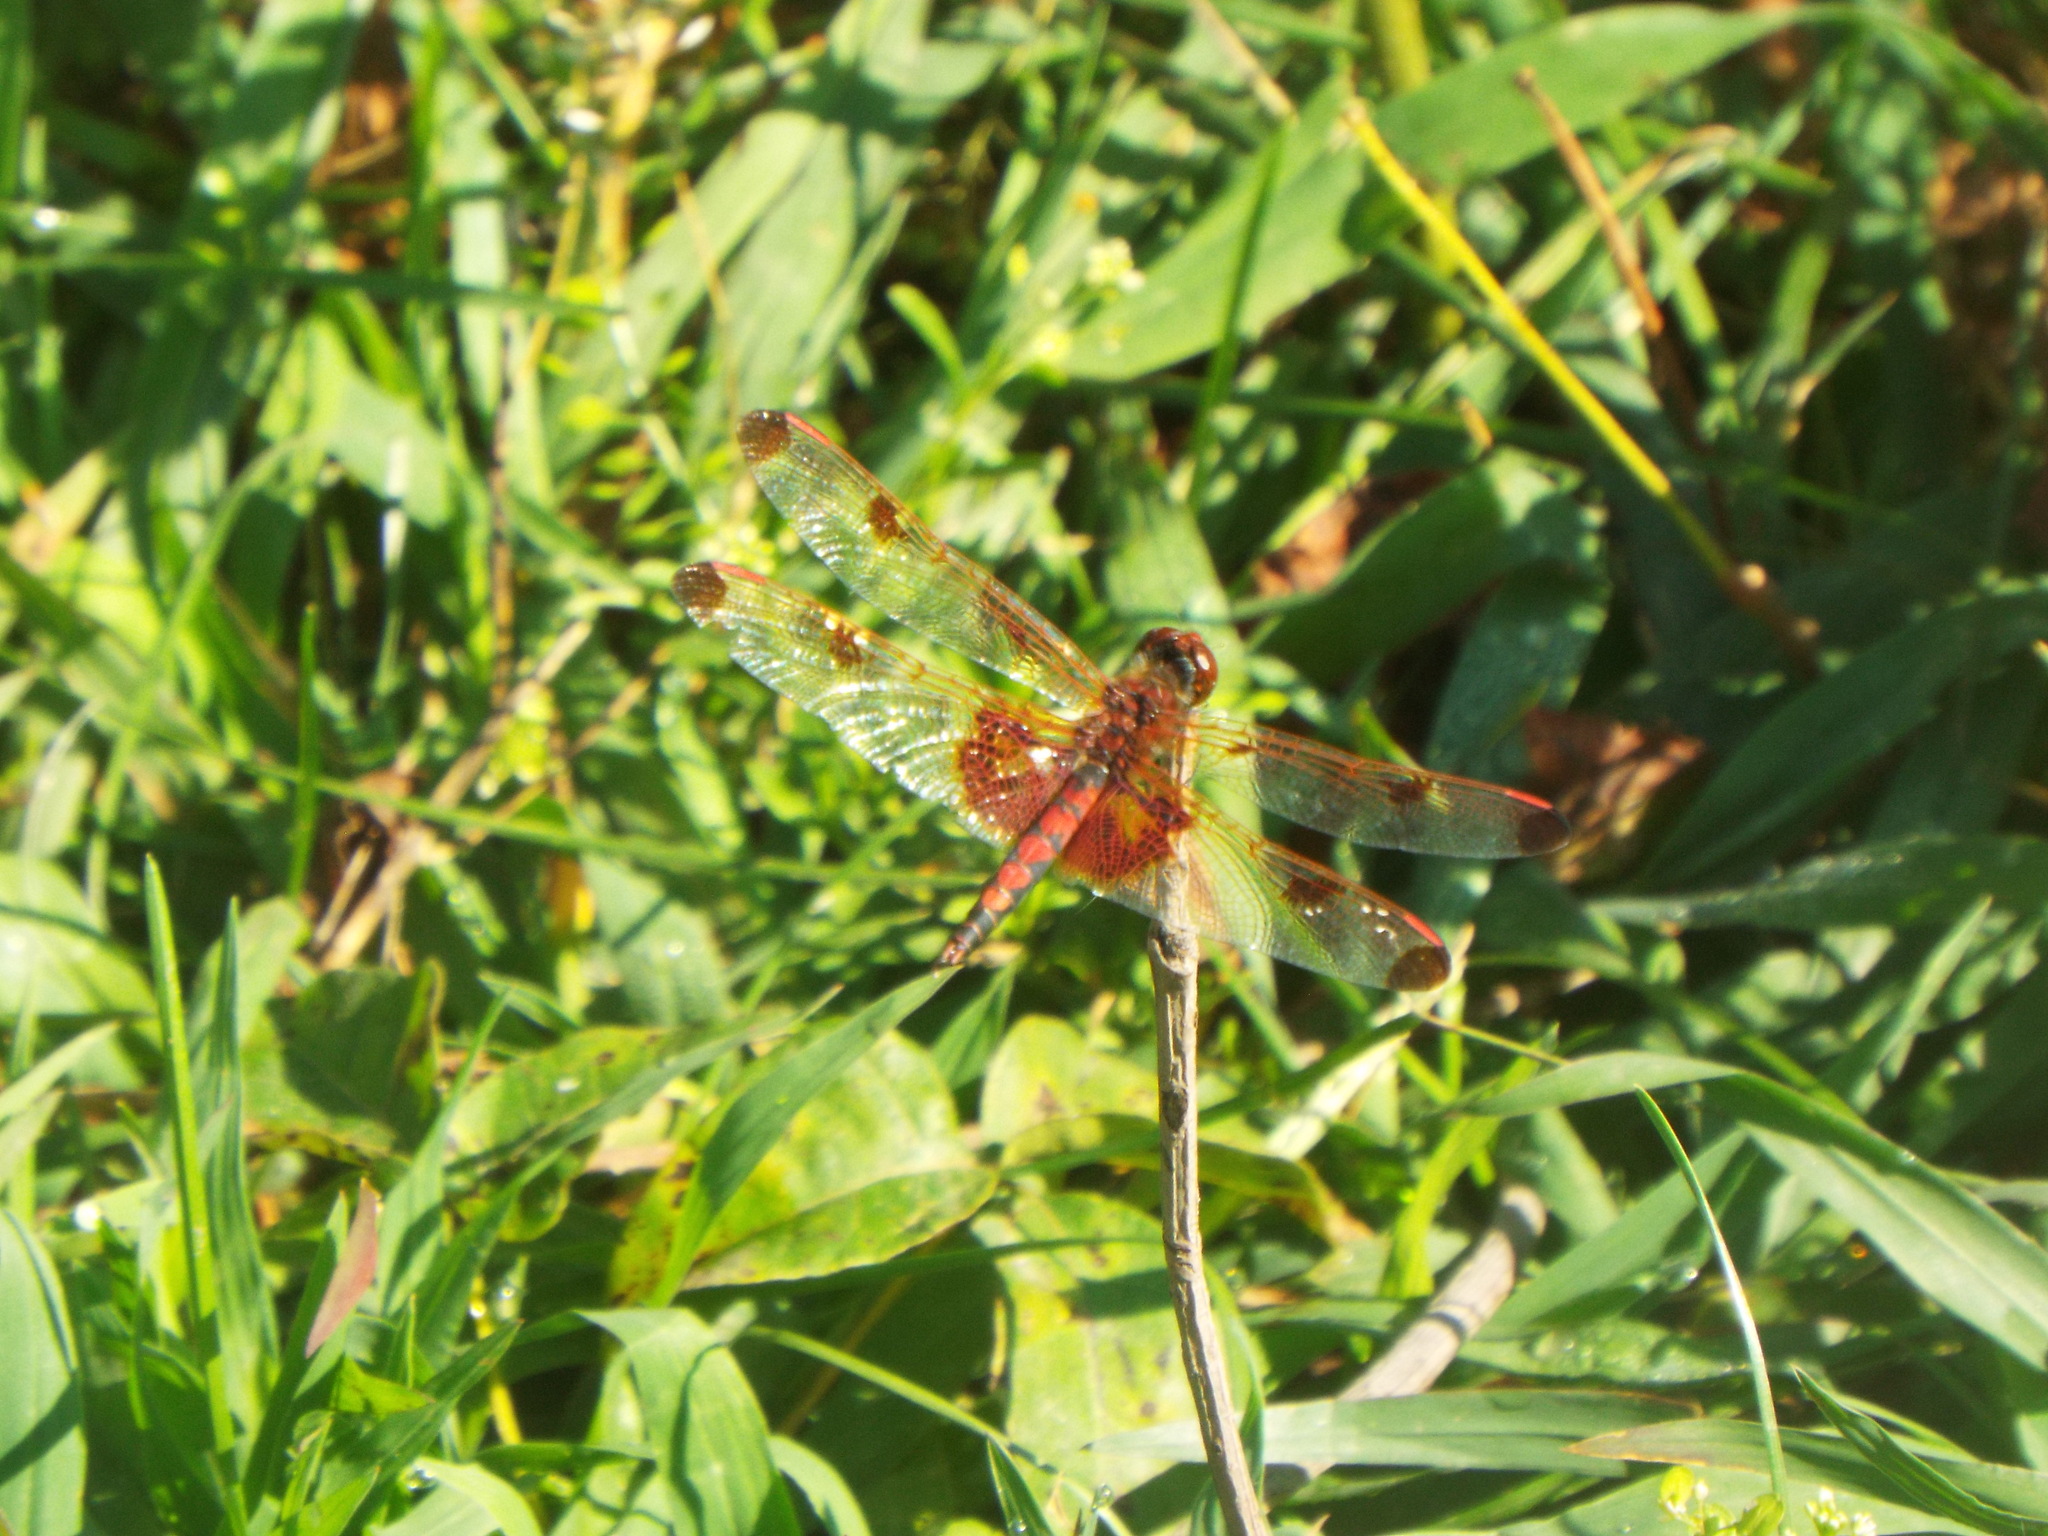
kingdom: Animalia
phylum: Arthropoda
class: Insecta
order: Odonata
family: Libellulidae
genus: Celithemis
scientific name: Celithemis elisa
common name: Calico pennant
